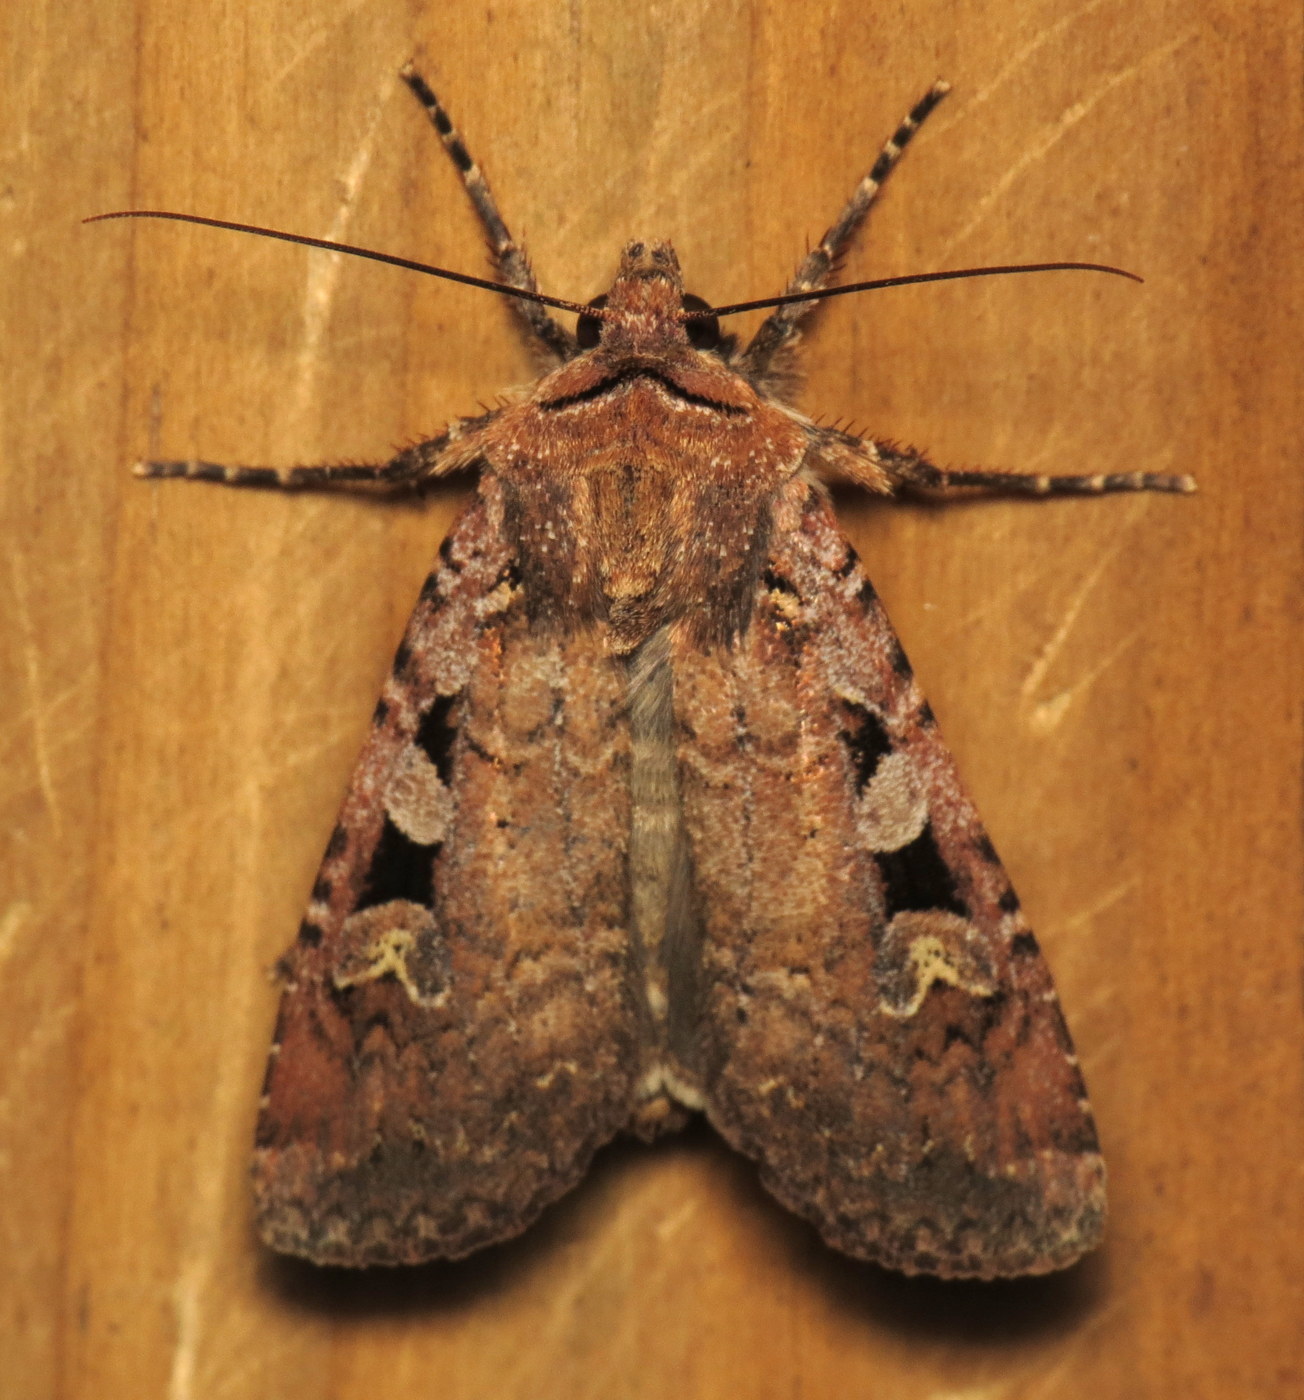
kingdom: Animalia
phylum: Arthropoda
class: Insecta
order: Lepidoptera
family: Noctuidae
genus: Euxoa
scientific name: Euxoa tessellata
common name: Striped cutworm
